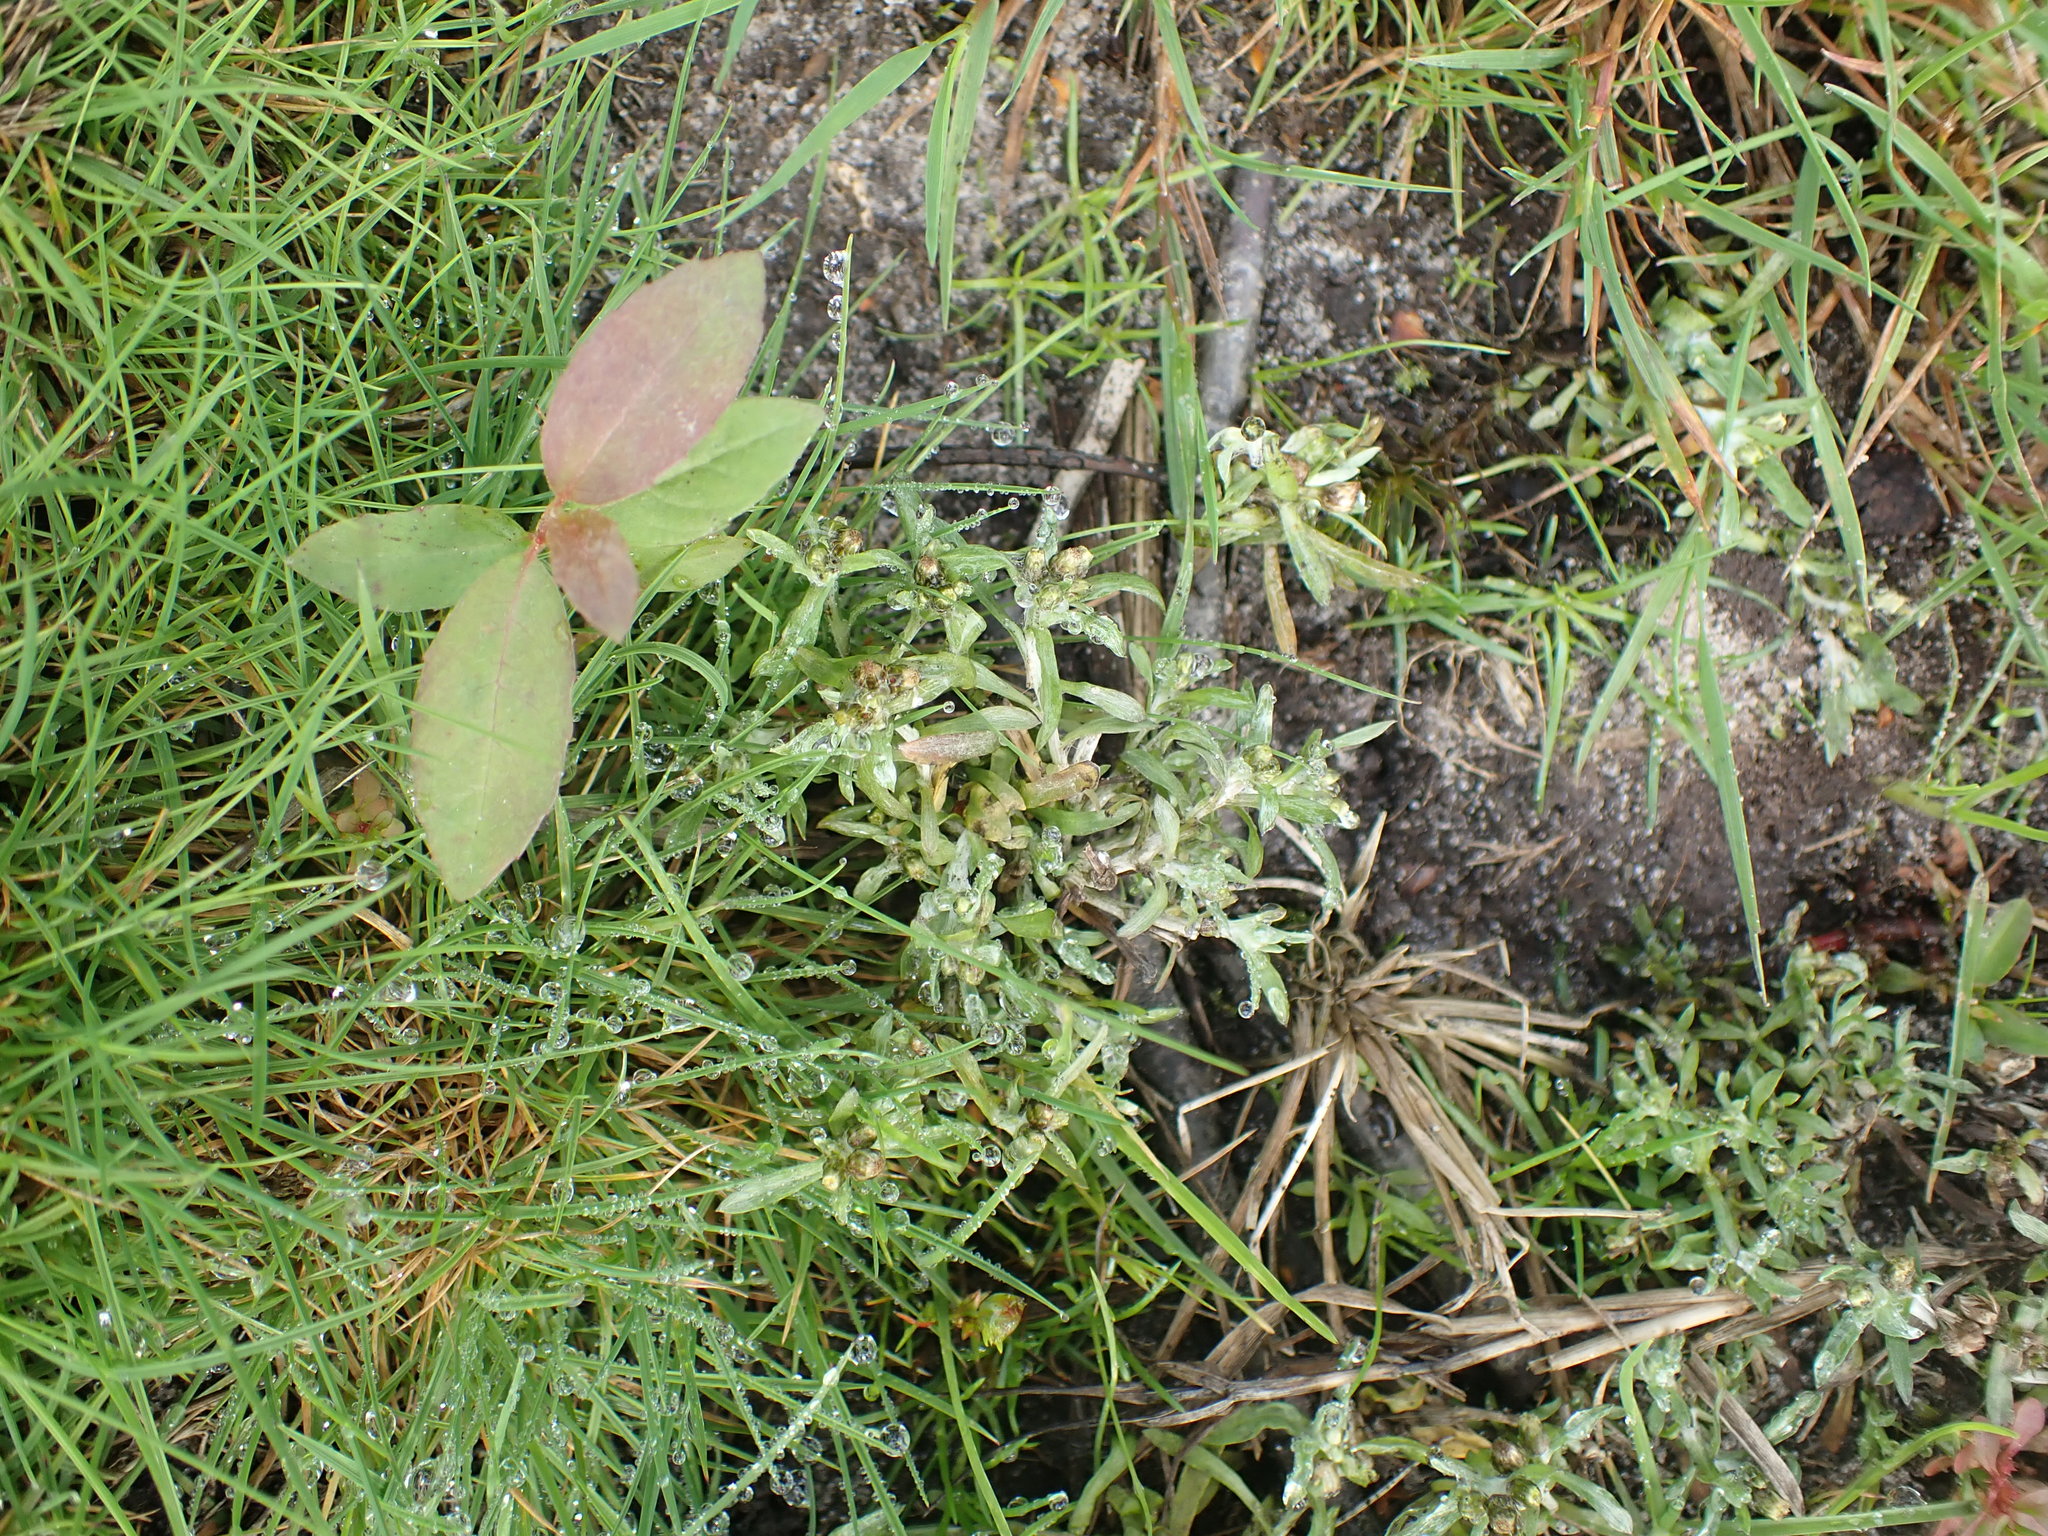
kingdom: Plantae
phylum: Tracheophyta
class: Magnoliopsida
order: Asterales
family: Asteraceae
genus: Gnaphalium
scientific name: Gnaphalium uliginosum
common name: Marsh cudweed
